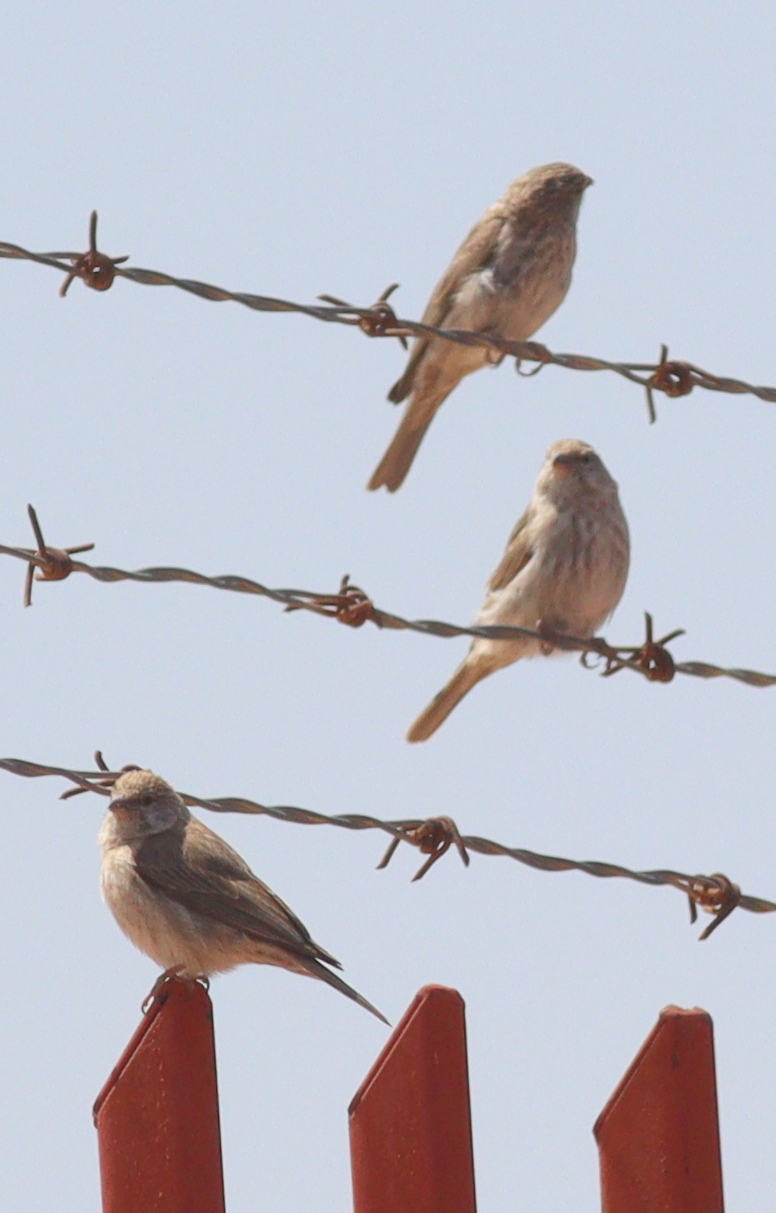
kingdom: Animalia
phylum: Chordata
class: Aves
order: Passeriformes
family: Fringillidae
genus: Crithagra
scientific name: Crithagra menachensis
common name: Yemen serin
